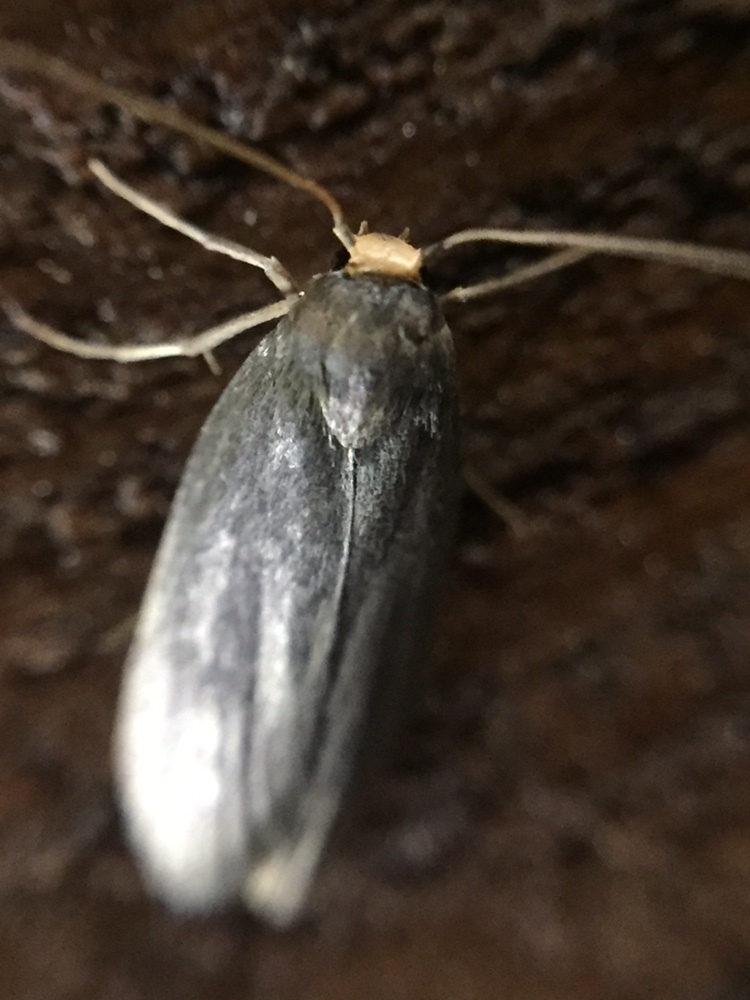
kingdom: Animalia
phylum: Arthropoda
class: Insecta
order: Lepidoptera
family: Pyralidae
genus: Achroia
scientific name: Achroia grisella
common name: Lesser wax moth
